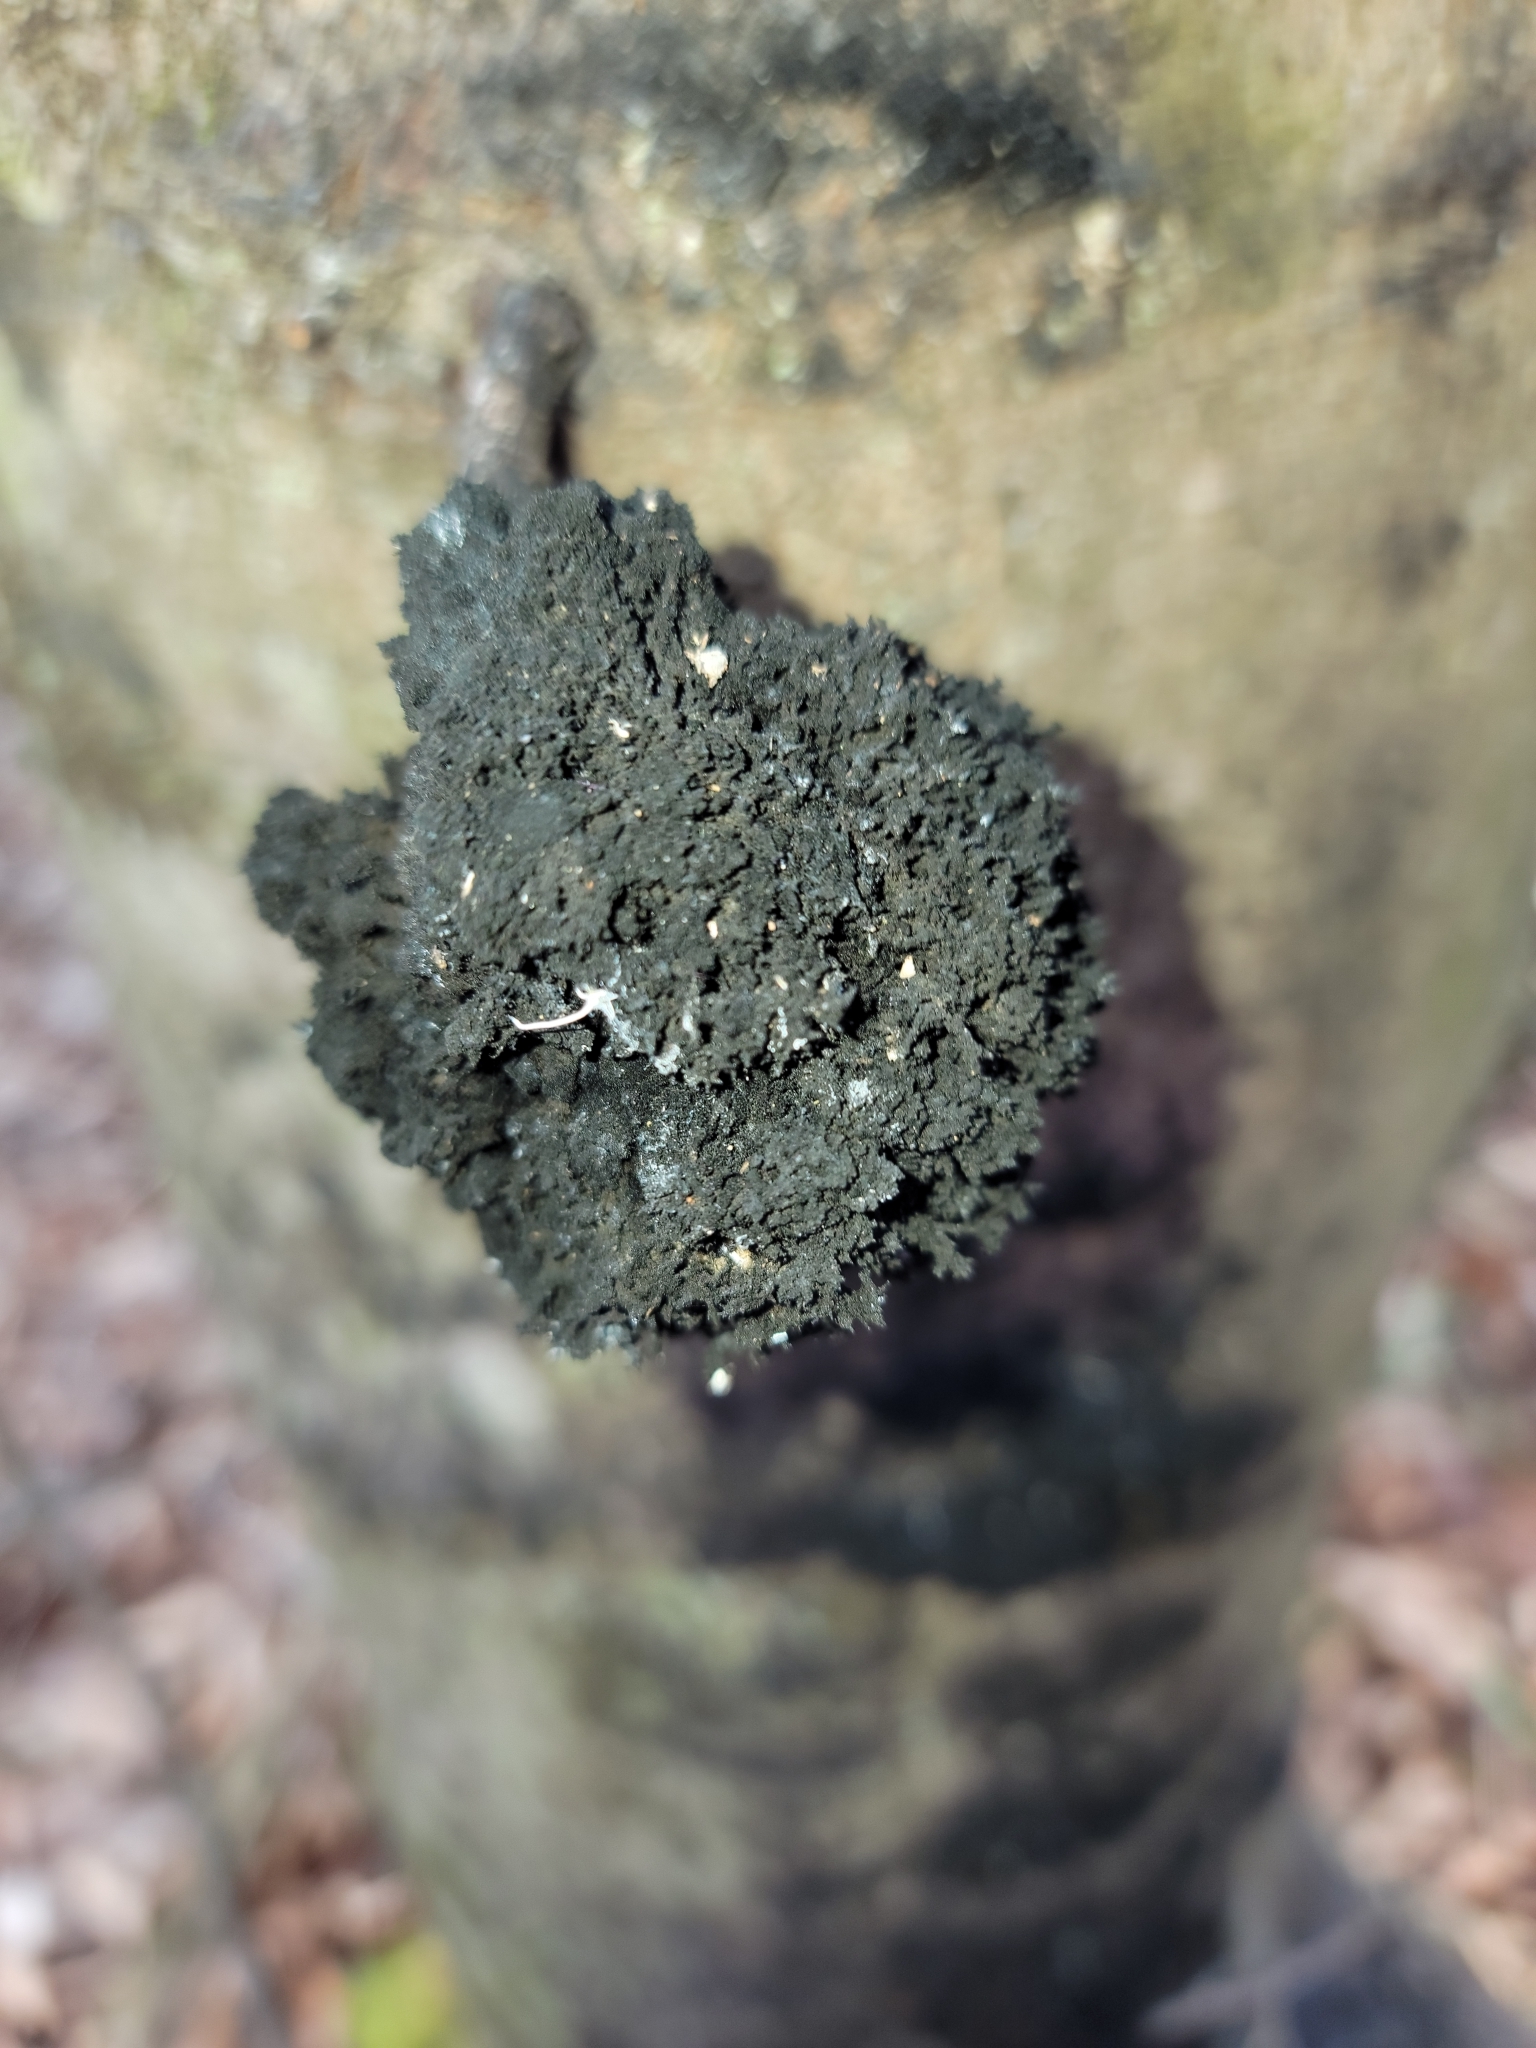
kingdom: Fungi
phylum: Ascomycota
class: Dothideomycetes
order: Capnodiales
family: Capnodiaceae
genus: Scorias
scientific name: Scorias spongiosa
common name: Black sooty mold
